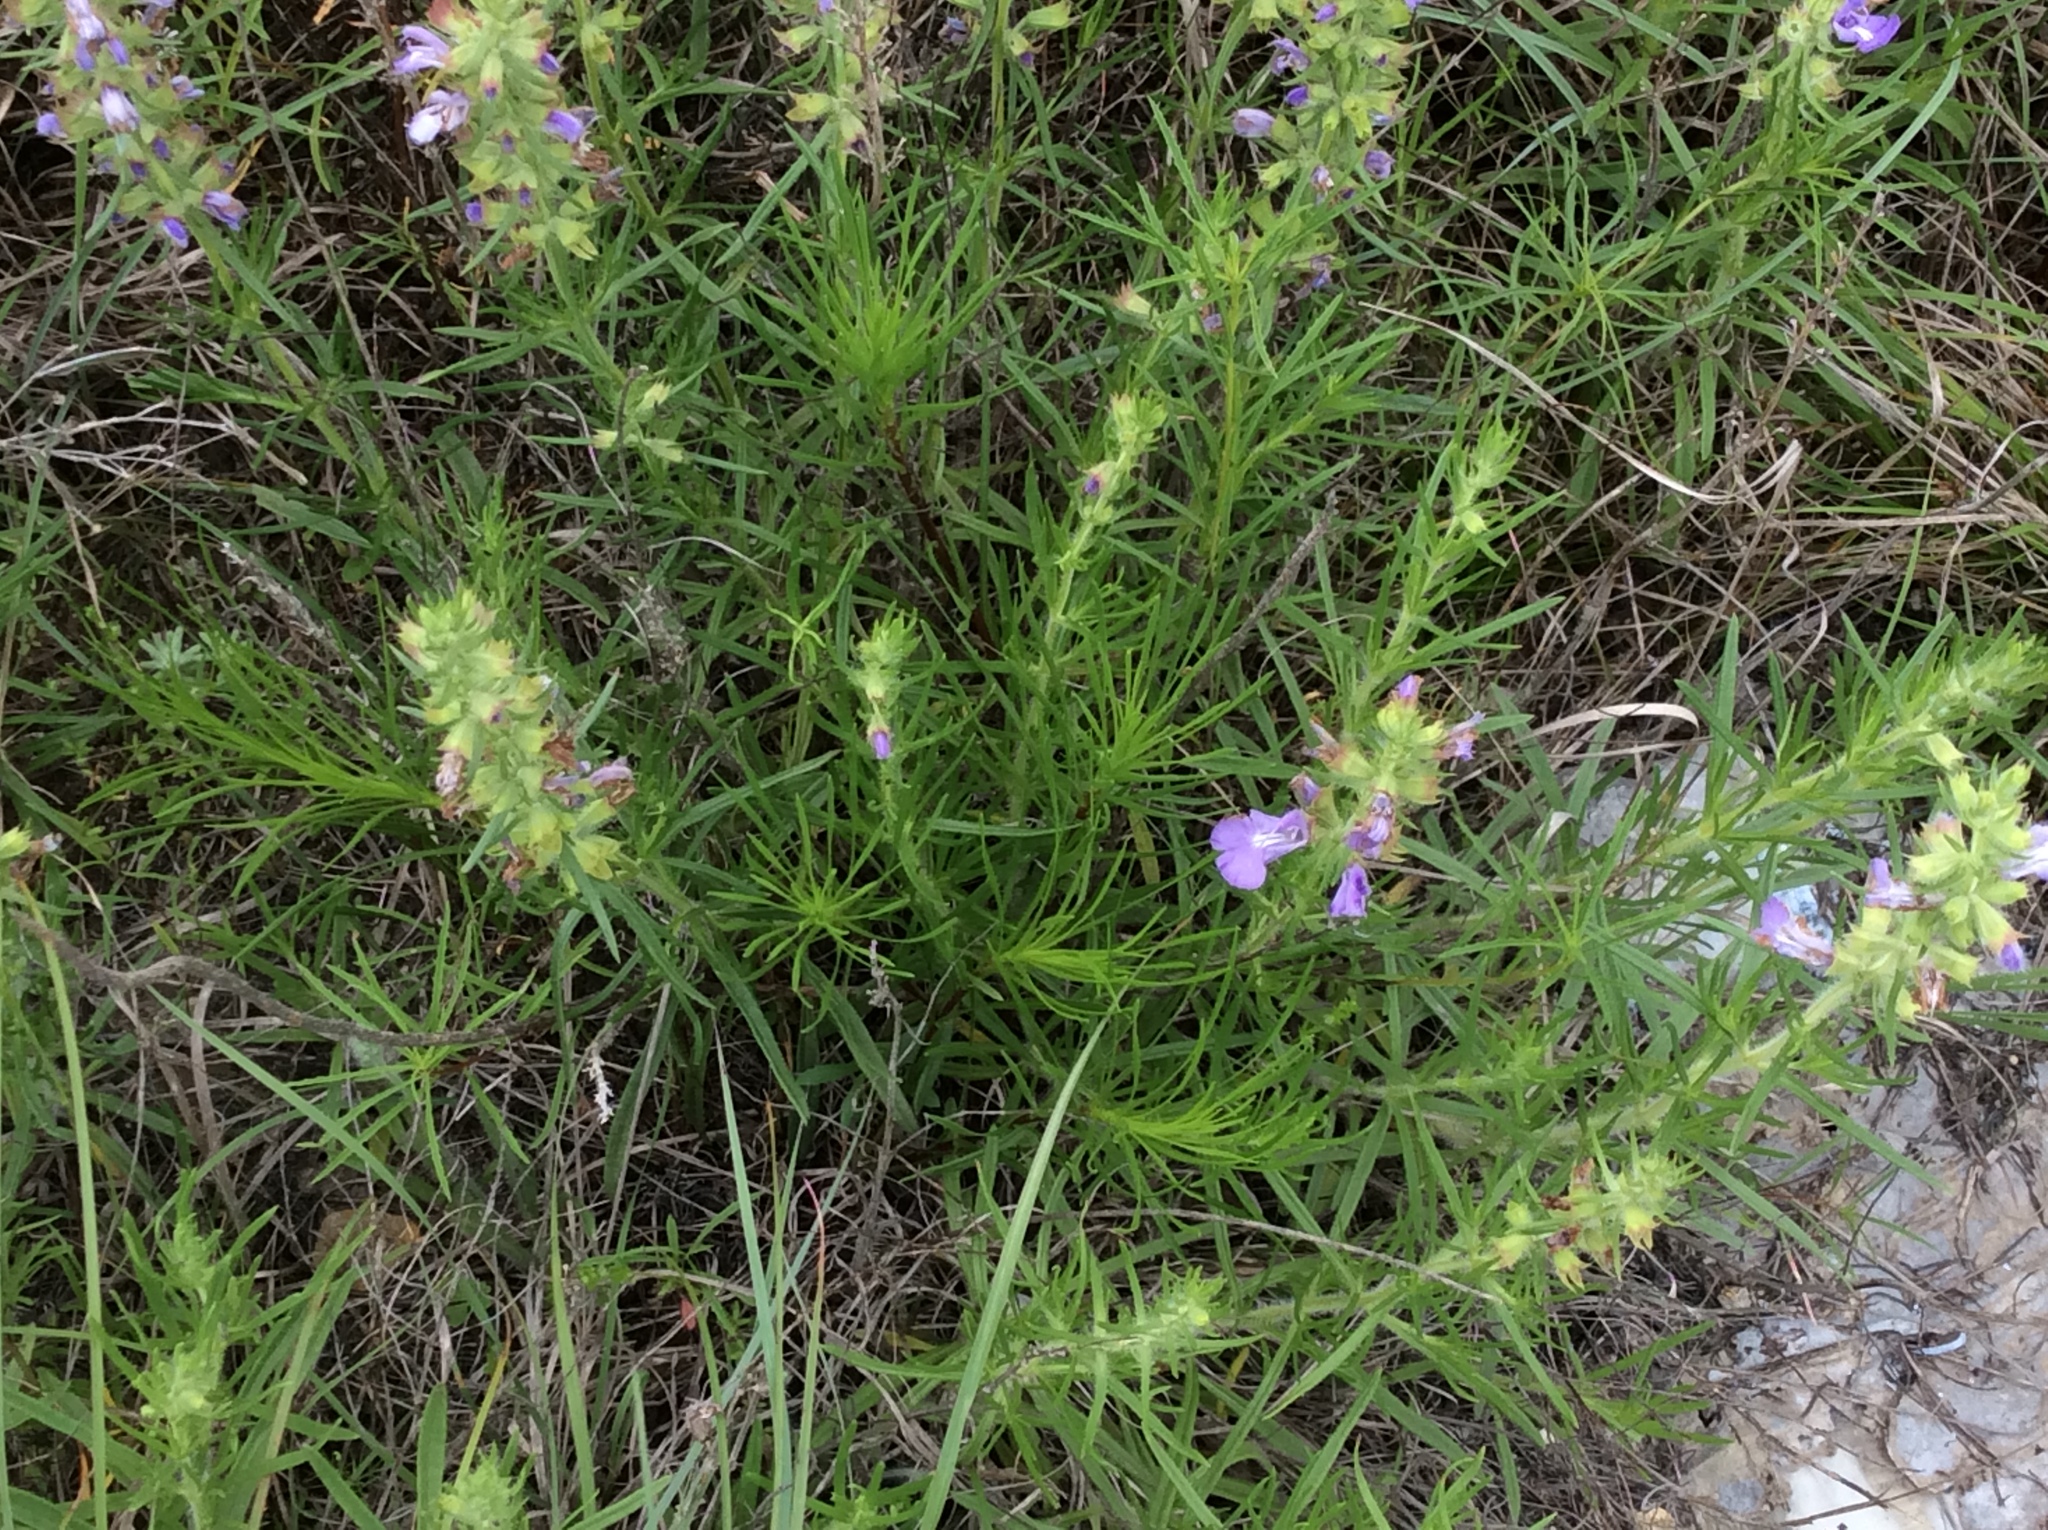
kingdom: Plantae
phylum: Tracheophyta
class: Magnoliopsida
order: Lamiales
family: Lamiaceae
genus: Salvia
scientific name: Salvia engelmannii
